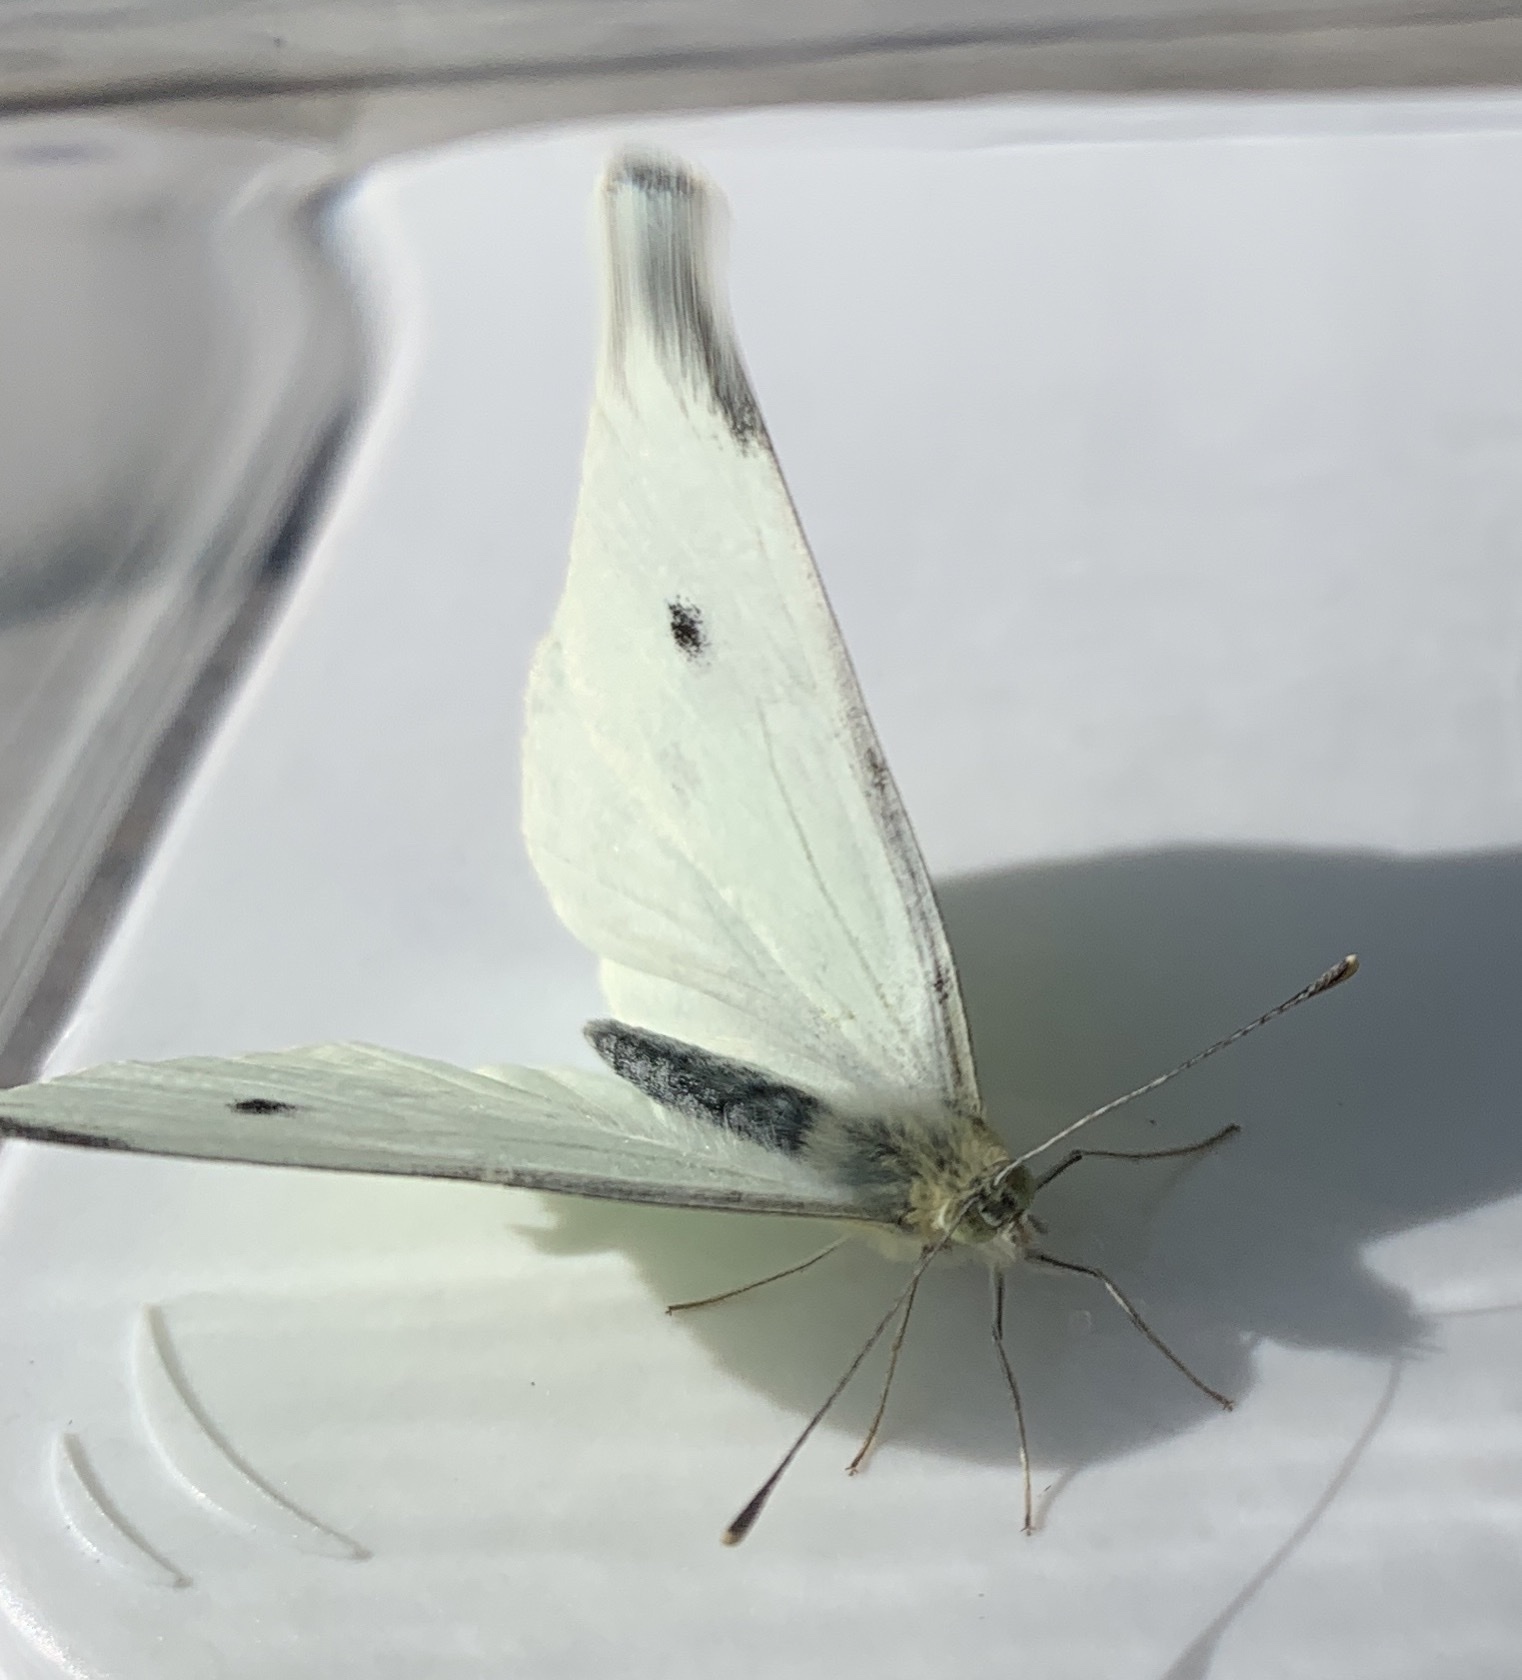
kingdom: Animalia
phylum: Arthropoda
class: Insecta
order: Lepidoptera
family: Pieridae
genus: Pieris
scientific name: Pieris rapae
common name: Small white
